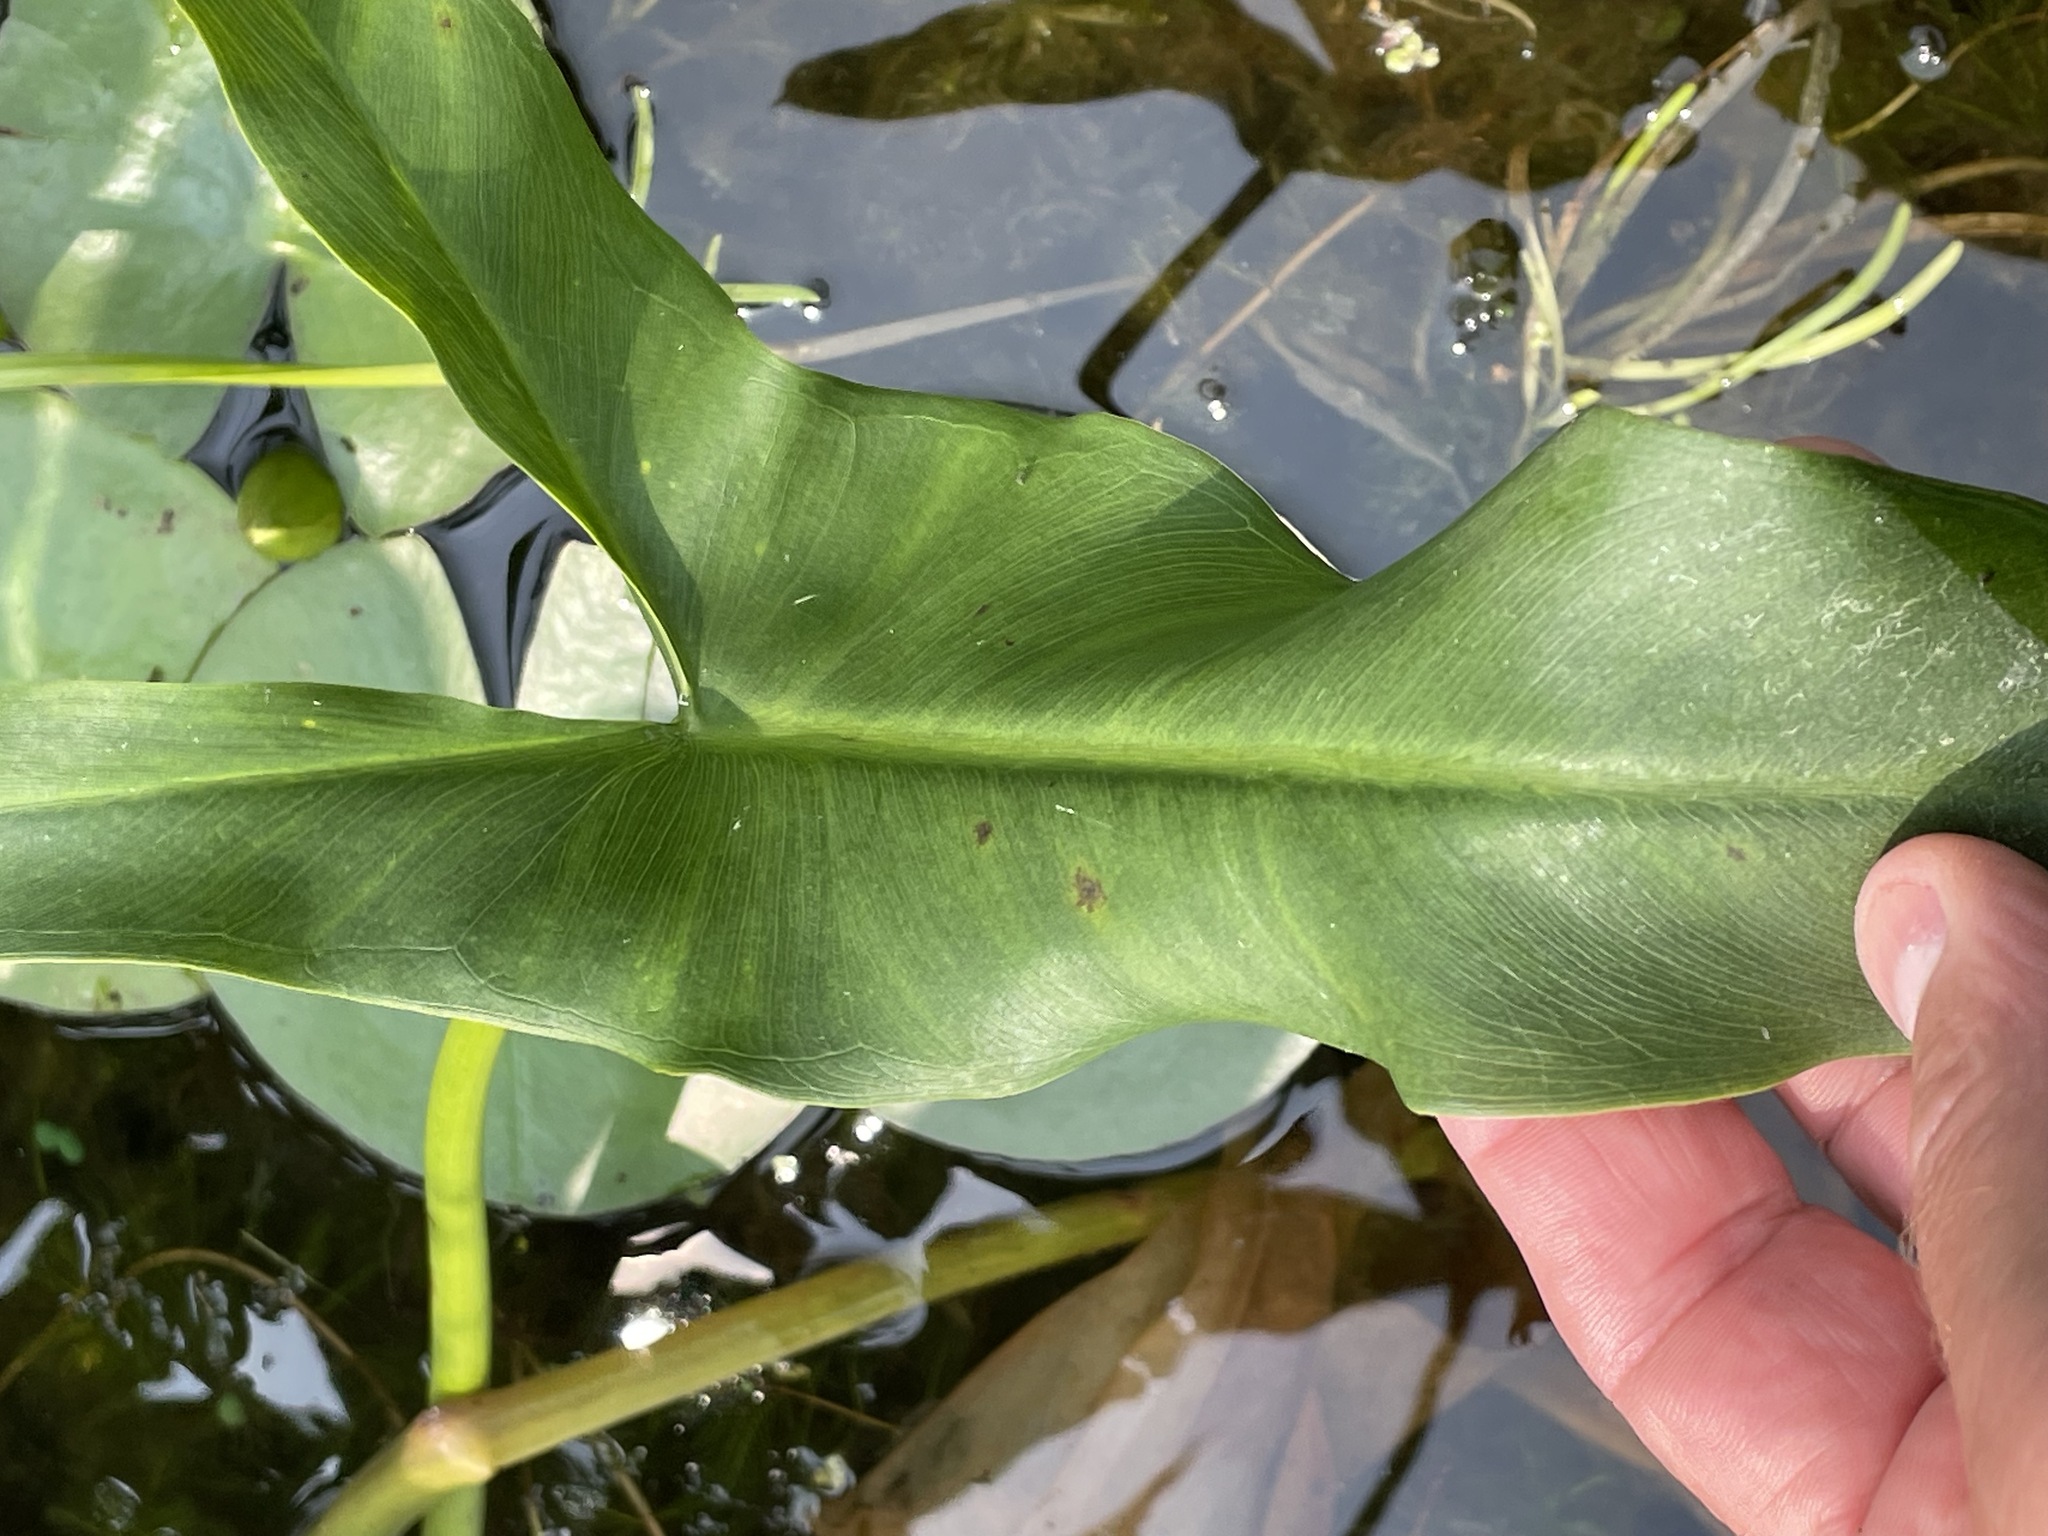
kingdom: Plantae
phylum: Tracheophyta
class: Liliopsida
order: Alismatales
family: Araceae
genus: Peltandra
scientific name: Peltandra virginica
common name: Arrow arum
